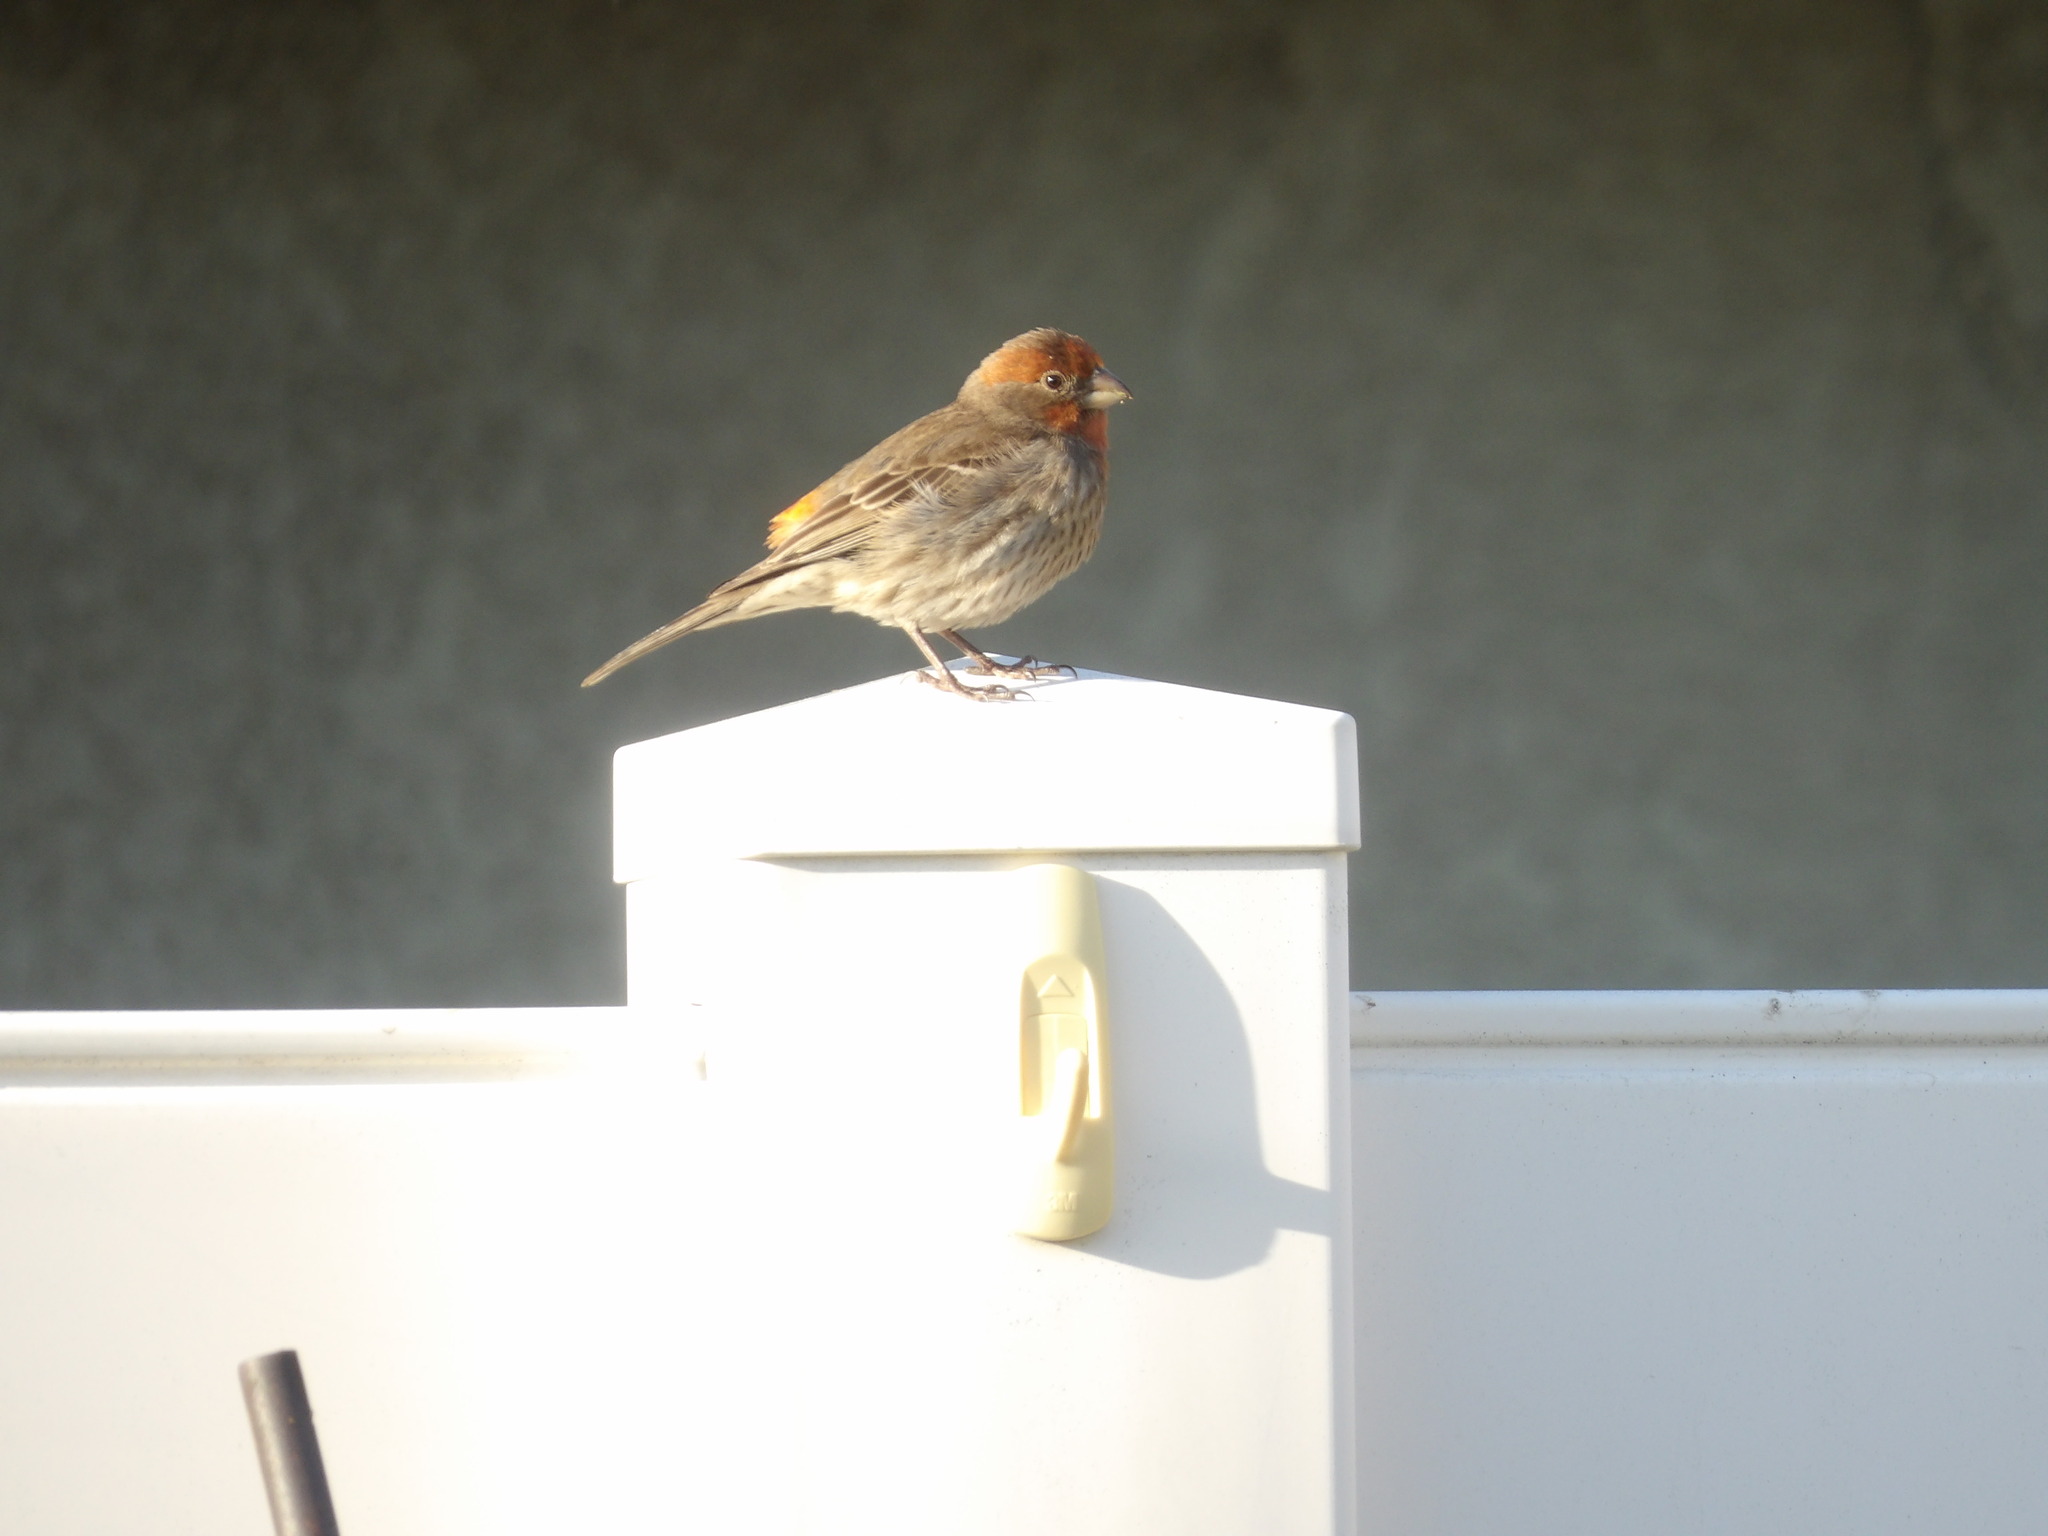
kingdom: Animalia
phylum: Chordata
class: Aves
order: Passeriformes
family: Fringillidae
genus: Haemorhous
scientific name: Haemorhous mexicanus
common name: House finch
